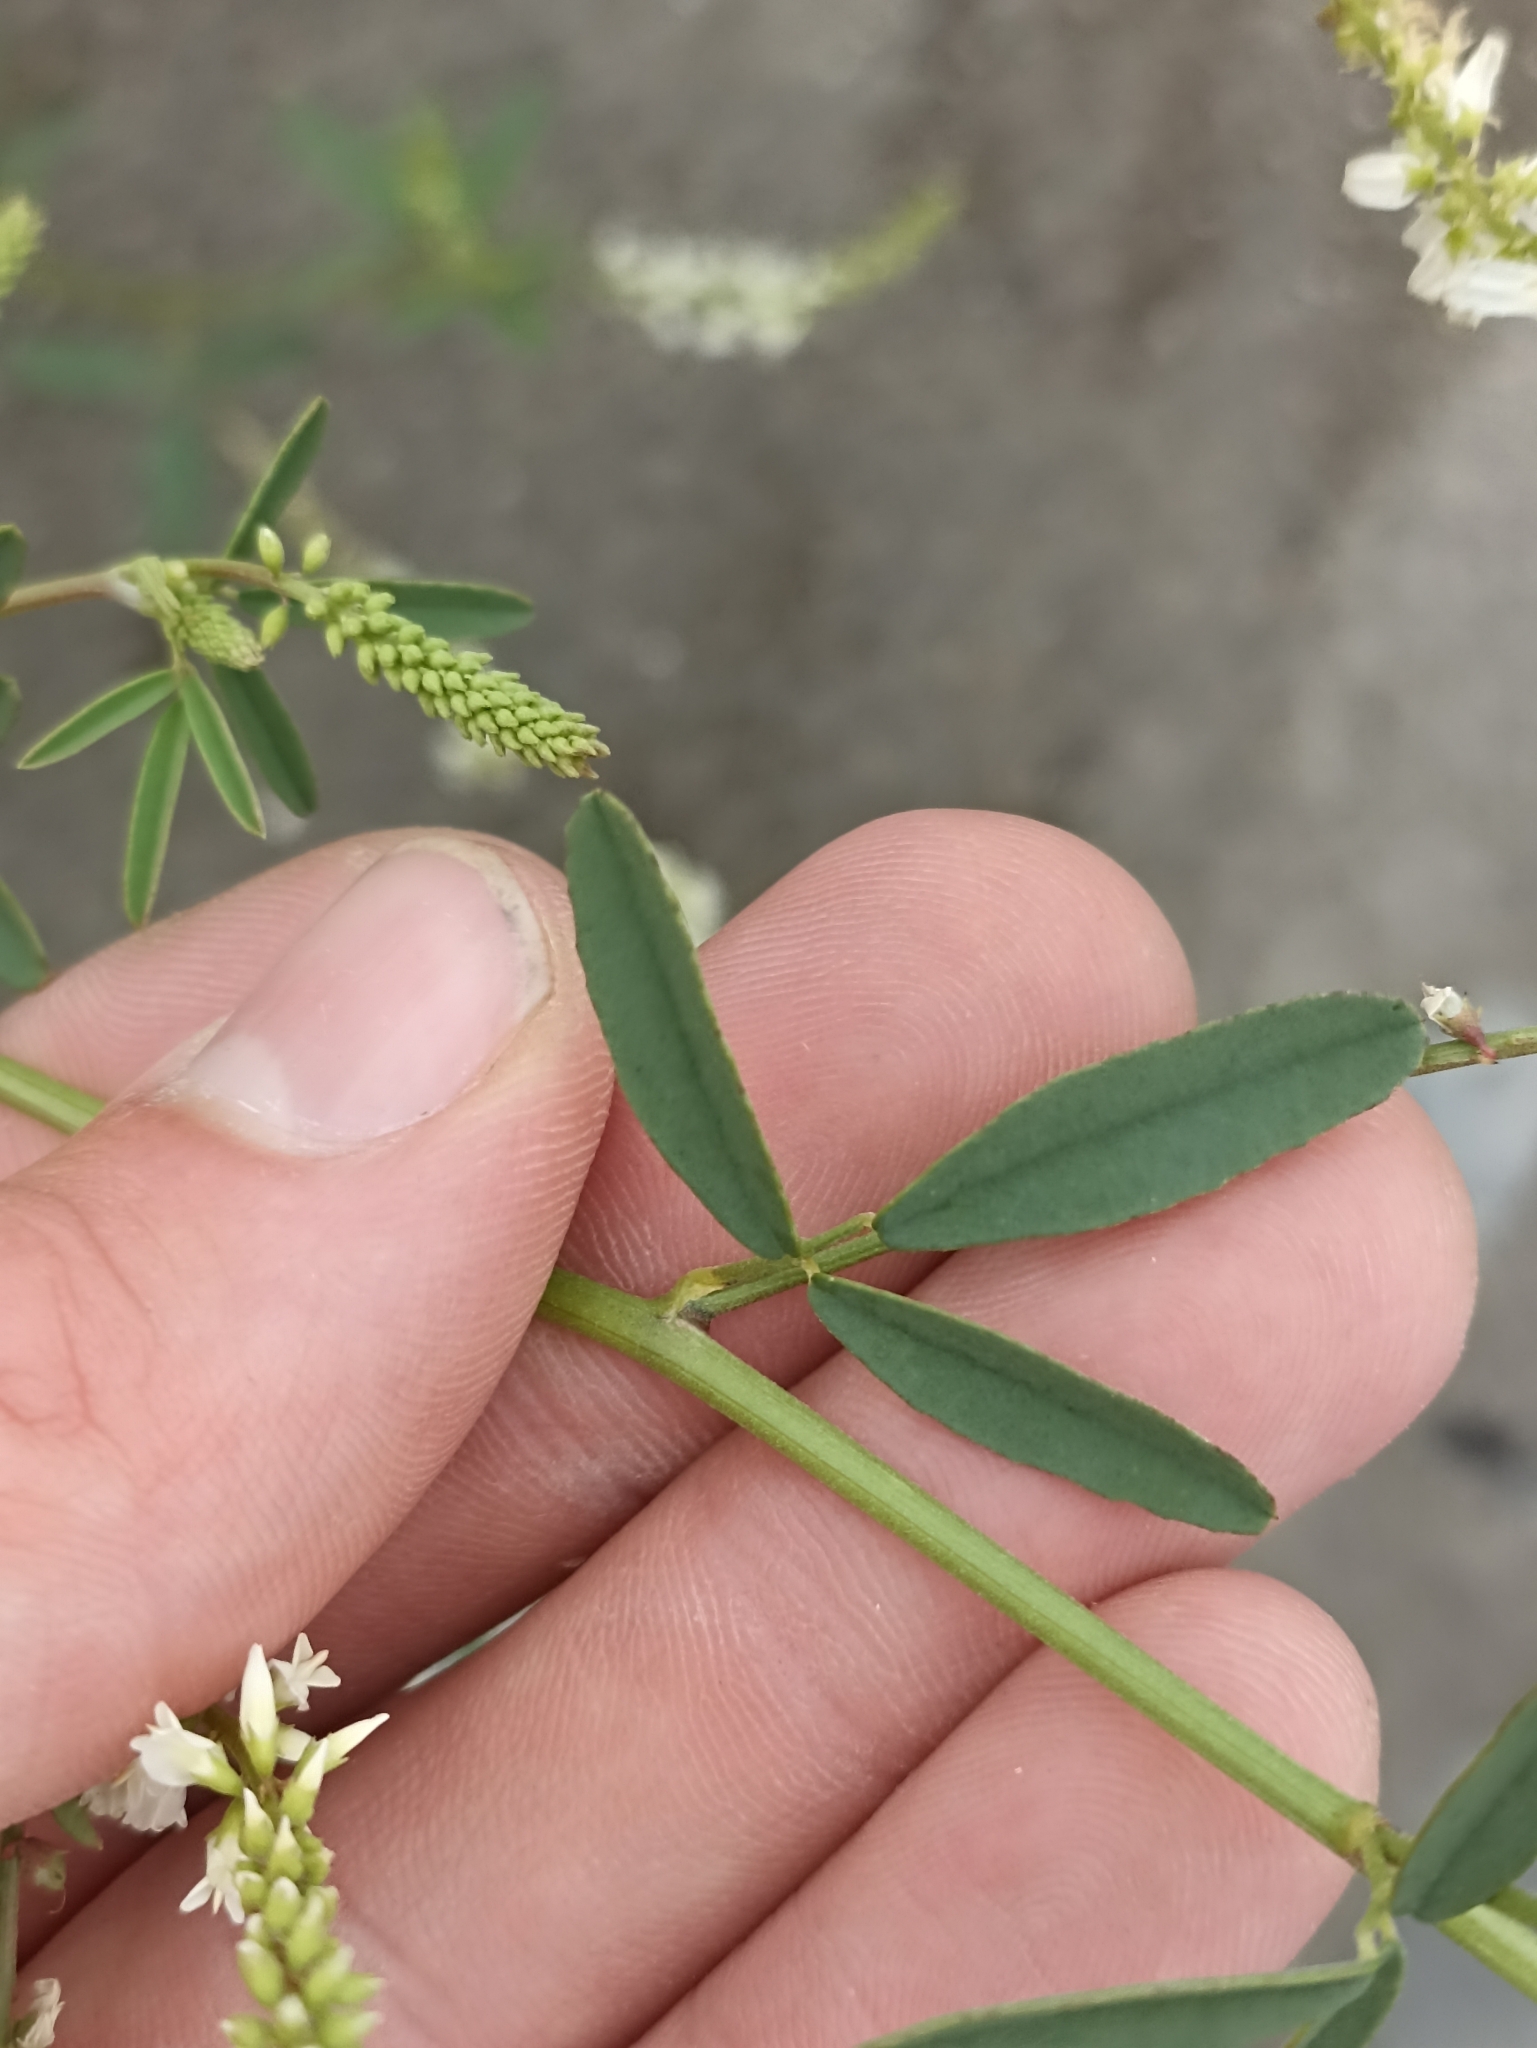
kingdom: Plantae
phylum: Tracheophyta
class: Magnoliopsida
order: Fabales
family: Fabaceae
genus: Melilotus
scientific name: Melilotus albus
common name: White melilot
